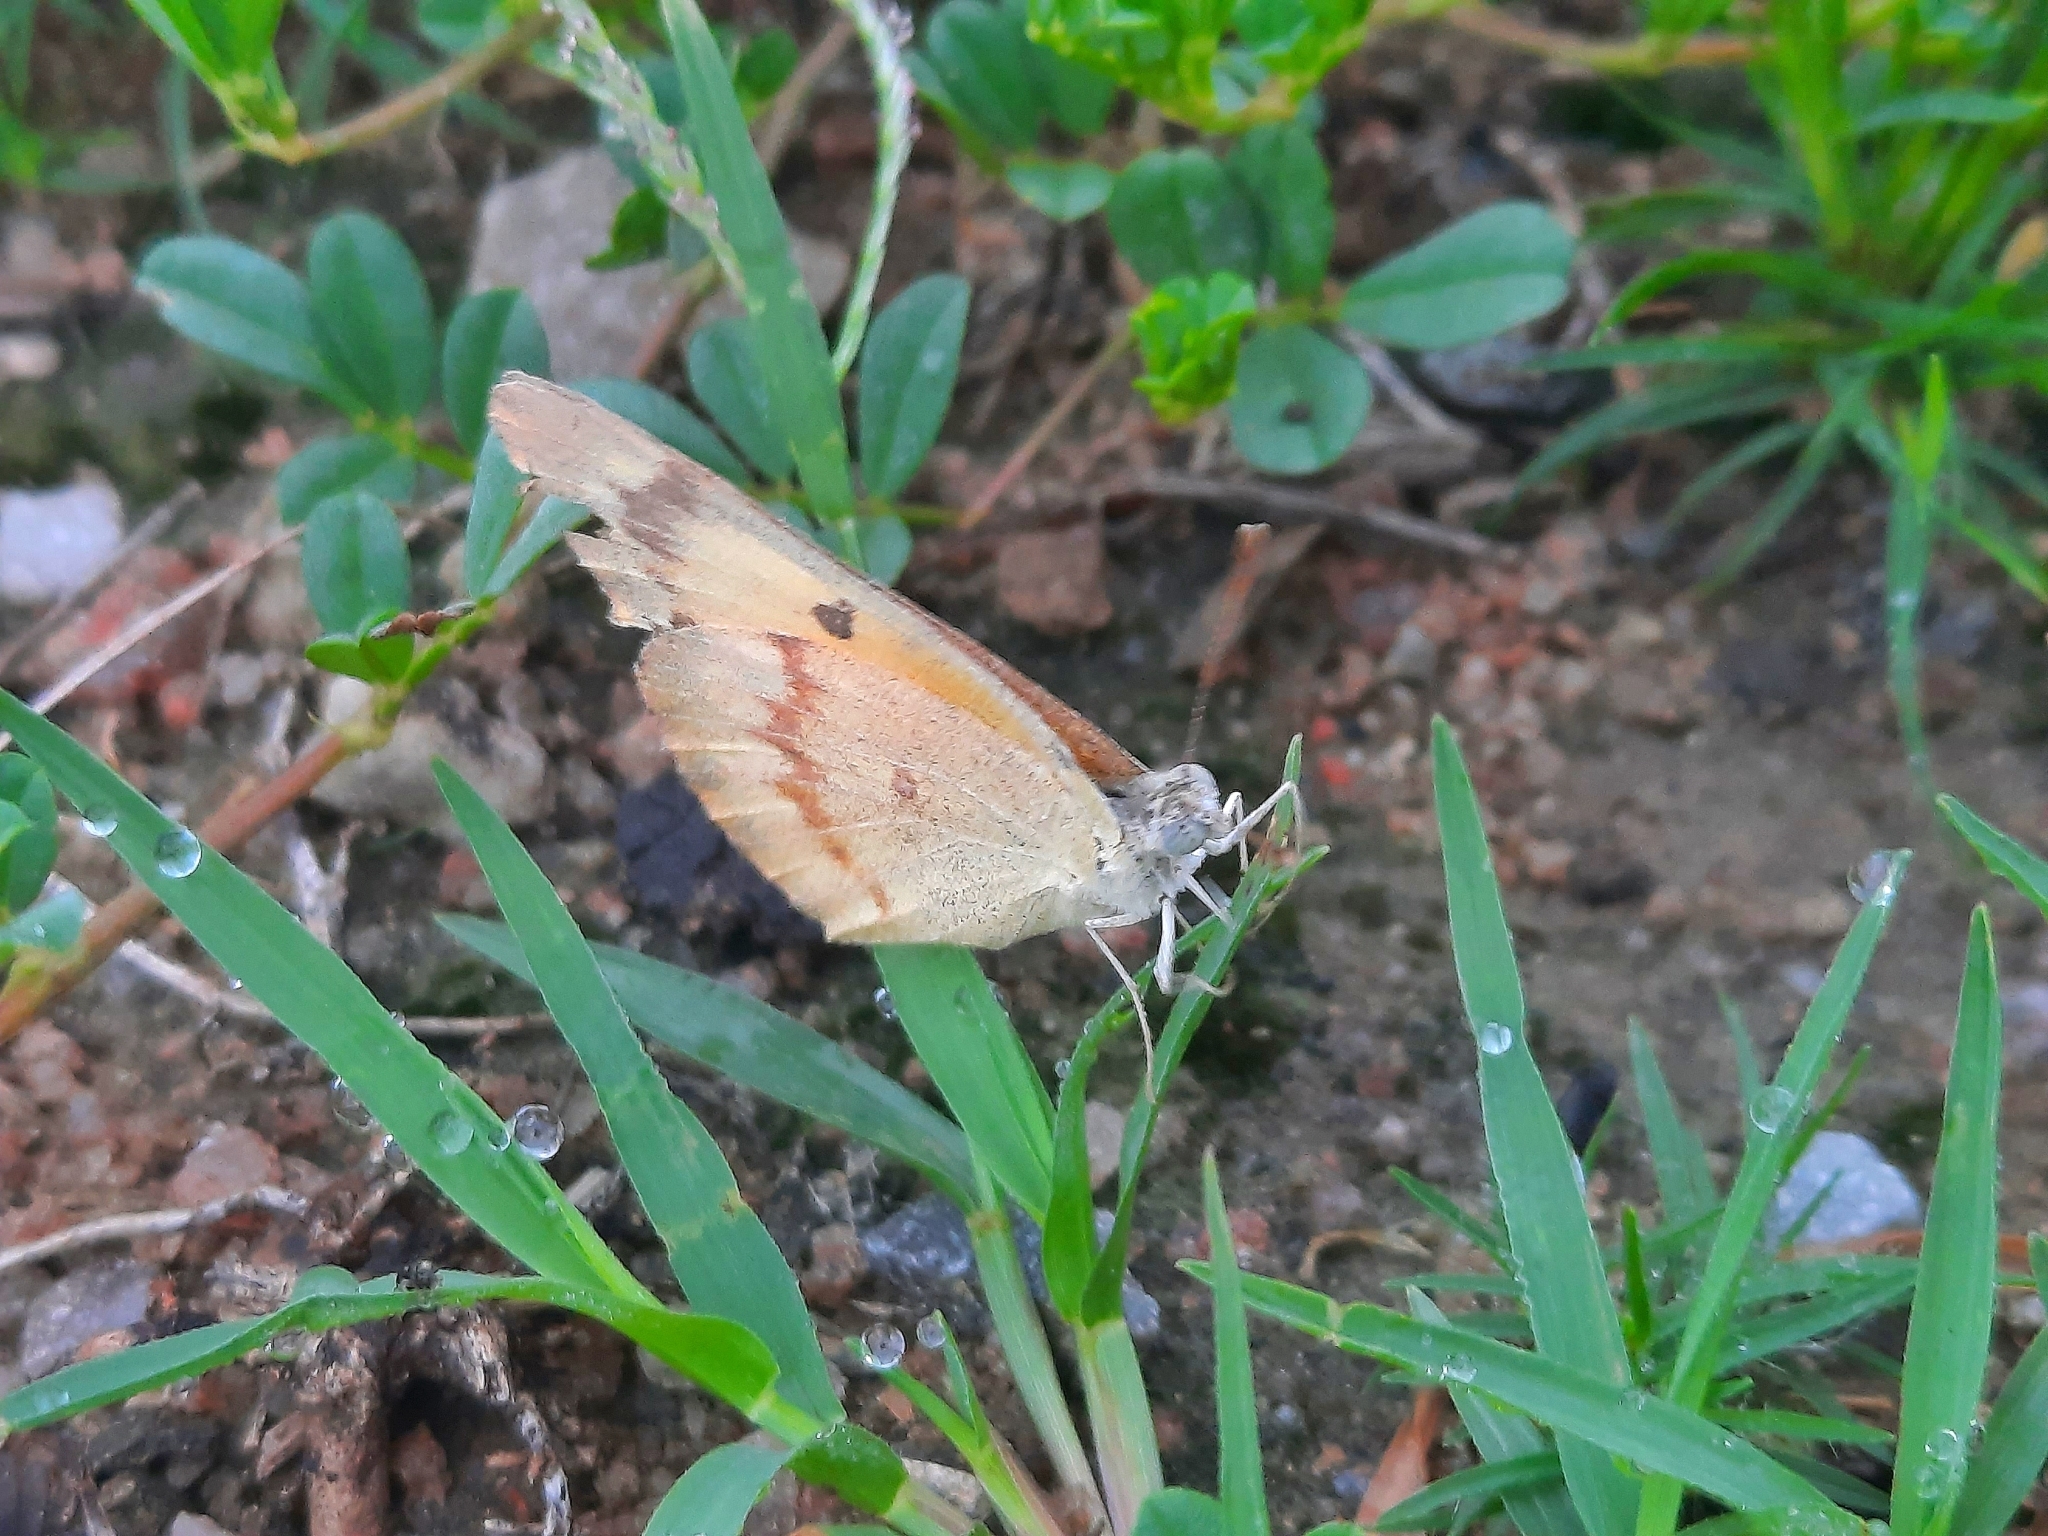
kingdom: Animalia
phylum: Arthropoda
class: Insecta
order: Lepidoptera
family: Pieridae
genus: Colotis
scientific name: Colotis amata
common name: Small salmon arab
